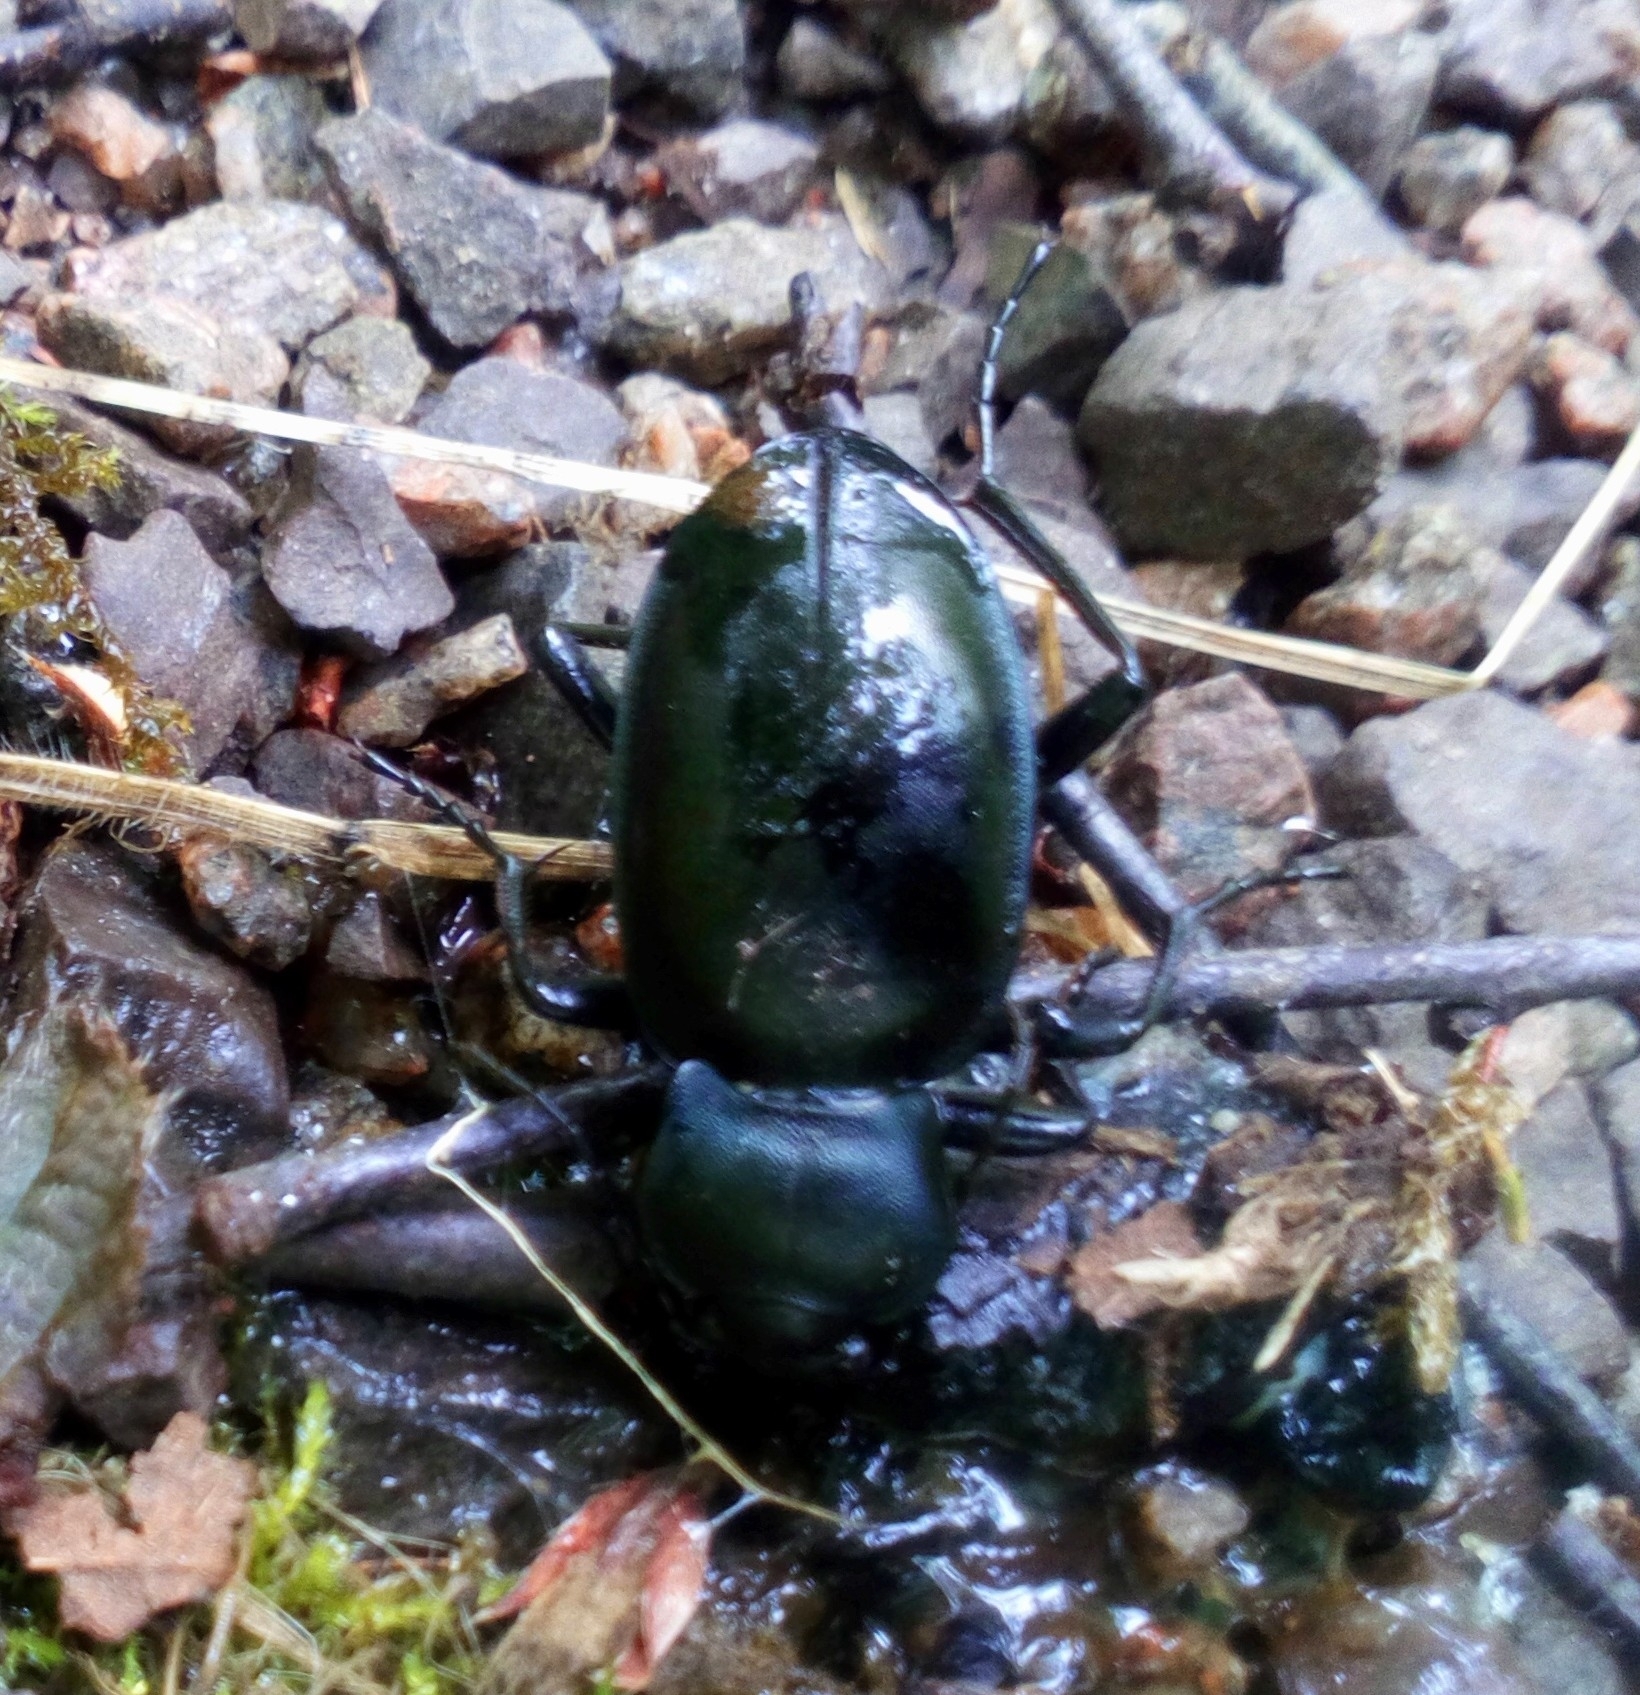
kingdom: Animalia
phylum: Arthropoda
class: Insecta
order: Coleoptera
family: Carabidae
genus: Carabus
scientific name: Carabus glabratus
